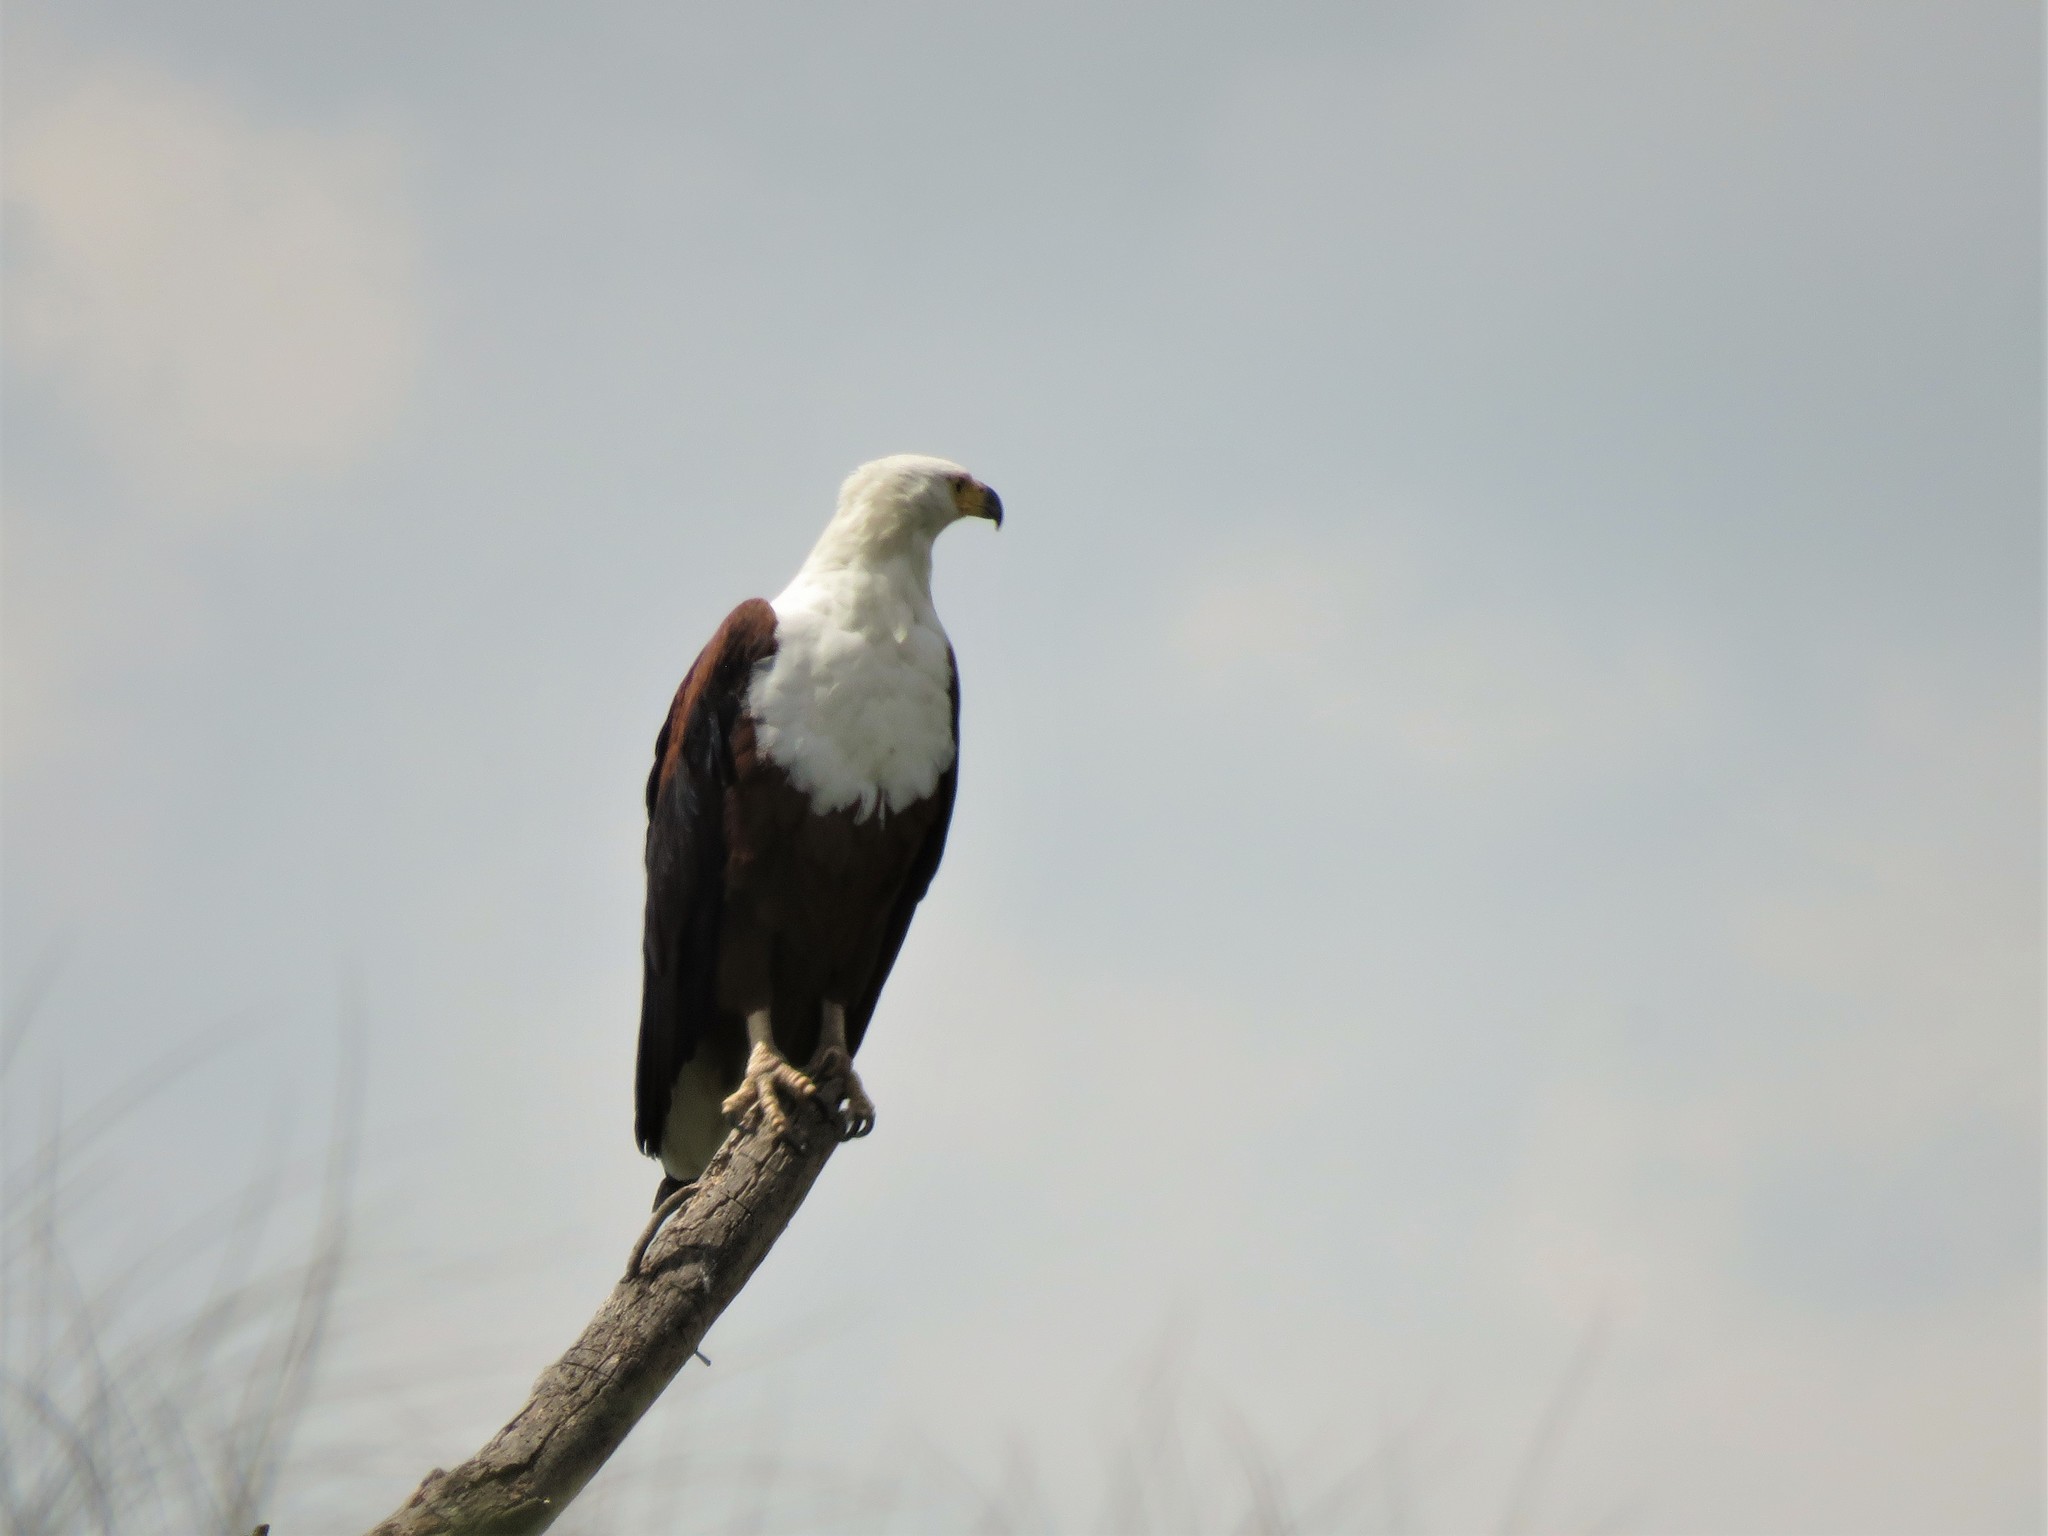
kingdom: Animalia
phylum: Chordata
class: Aves
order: Accipitriformes
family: Accipitridae
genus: Haliaeetus
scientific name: Haliaeetus vocifer
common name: African fish eagle
